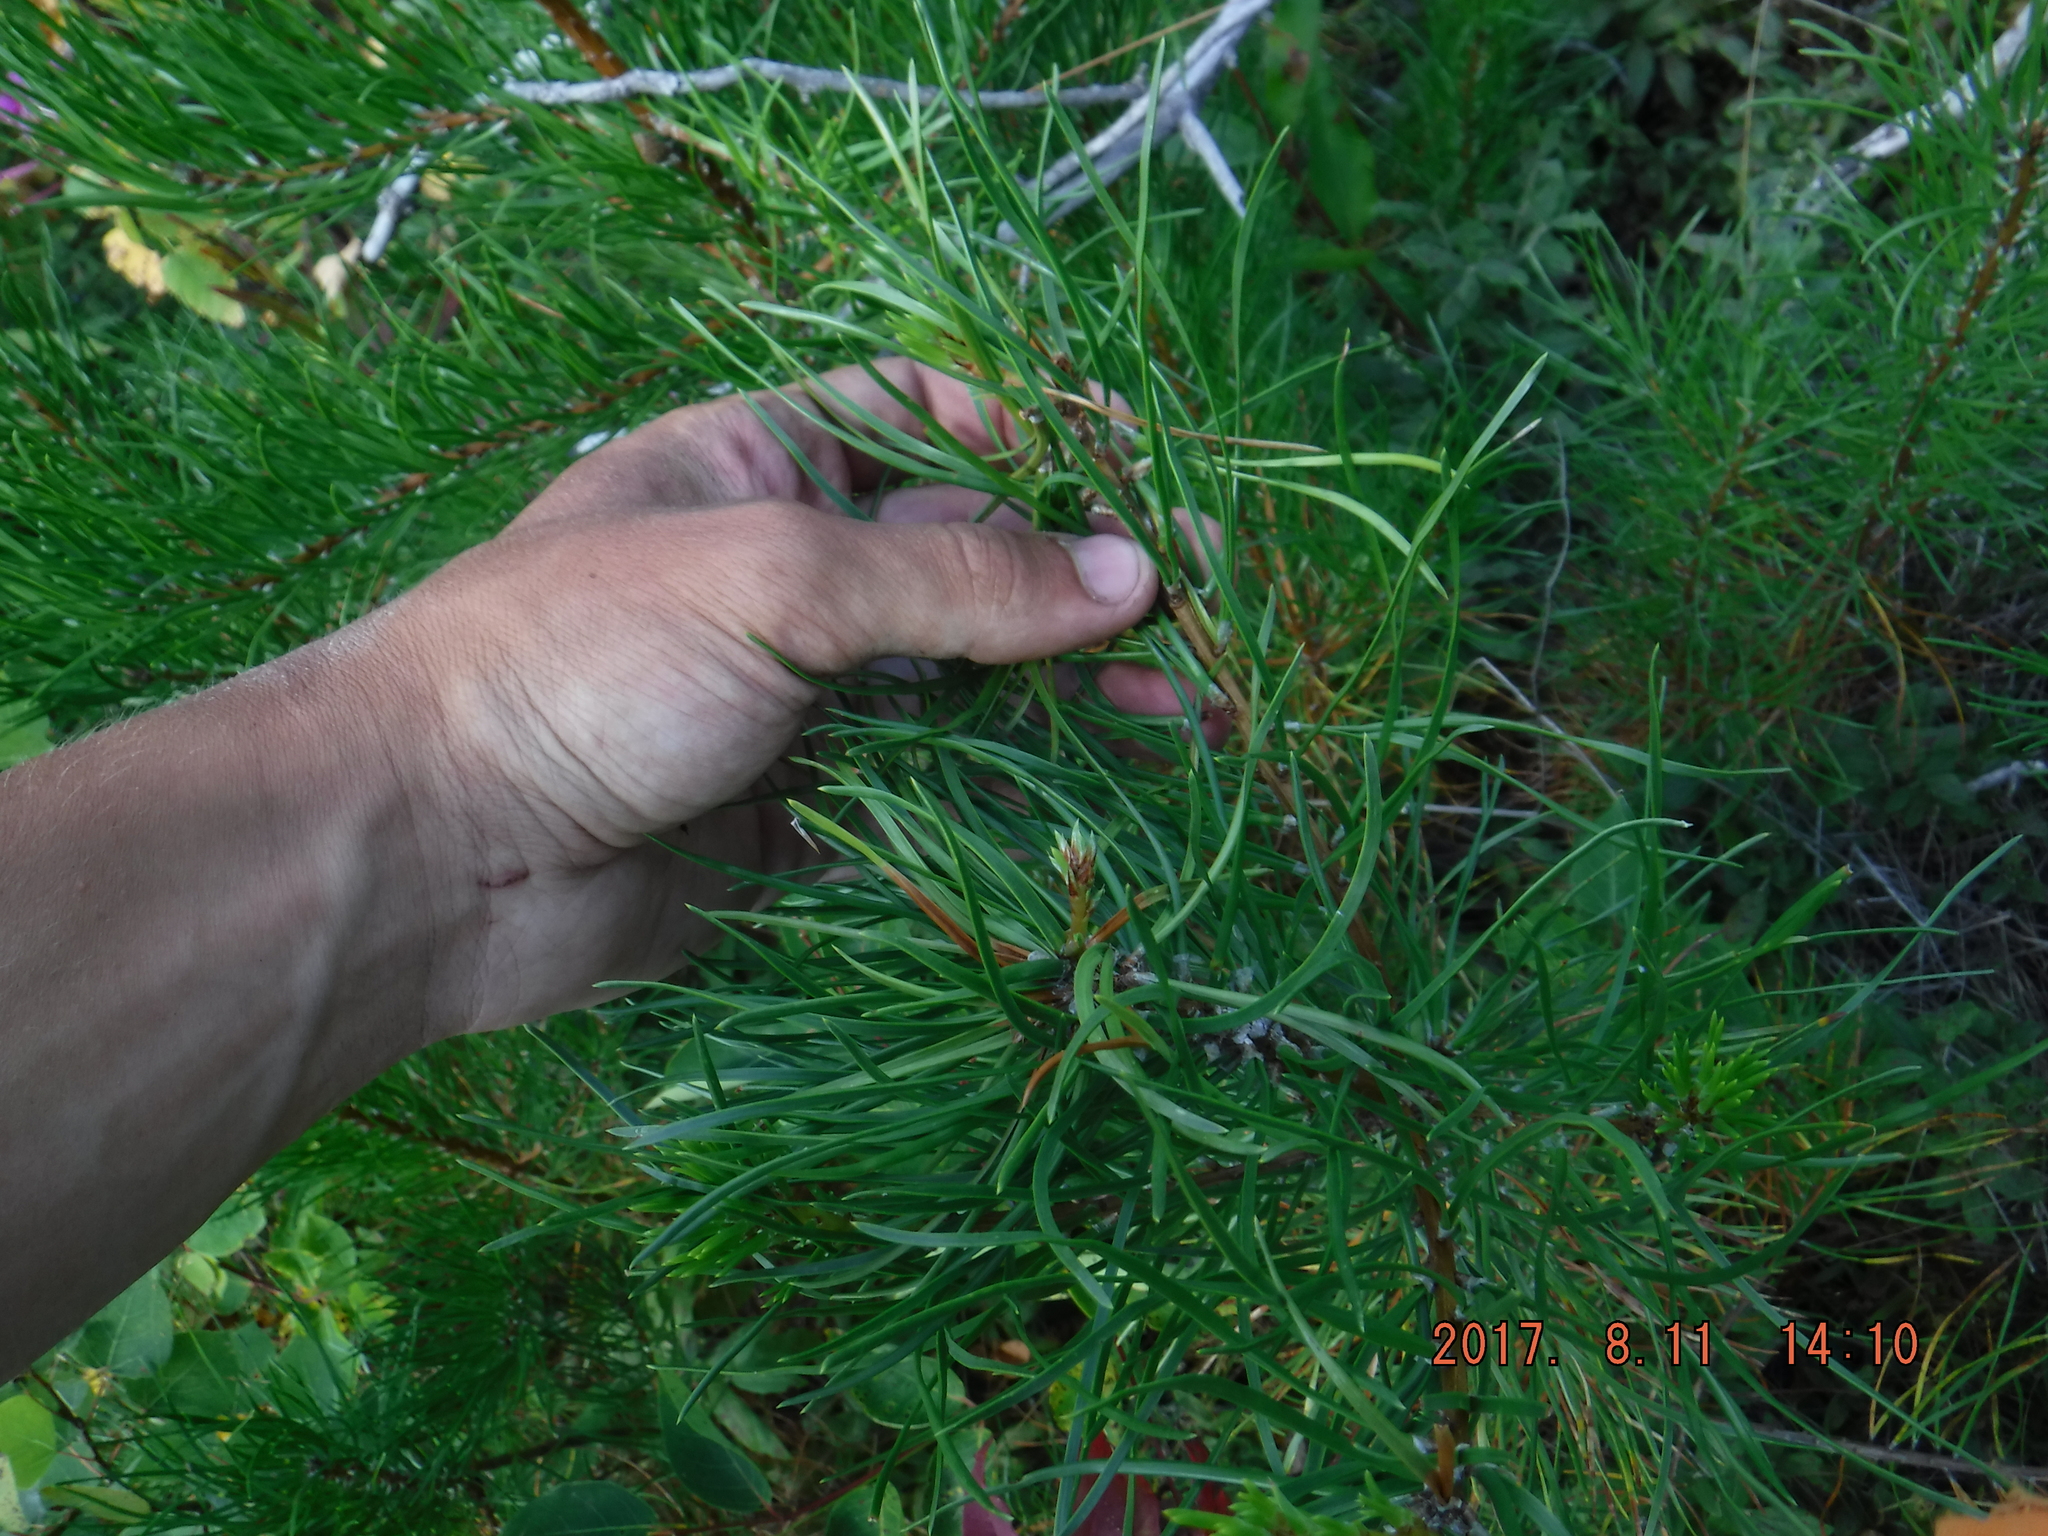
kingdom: Plantae
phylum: Tracheophyta
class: Pinopsida
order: Pinales
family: Pinaceae
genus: Pinus
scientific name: Pinus banksiana
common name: Jack pine
